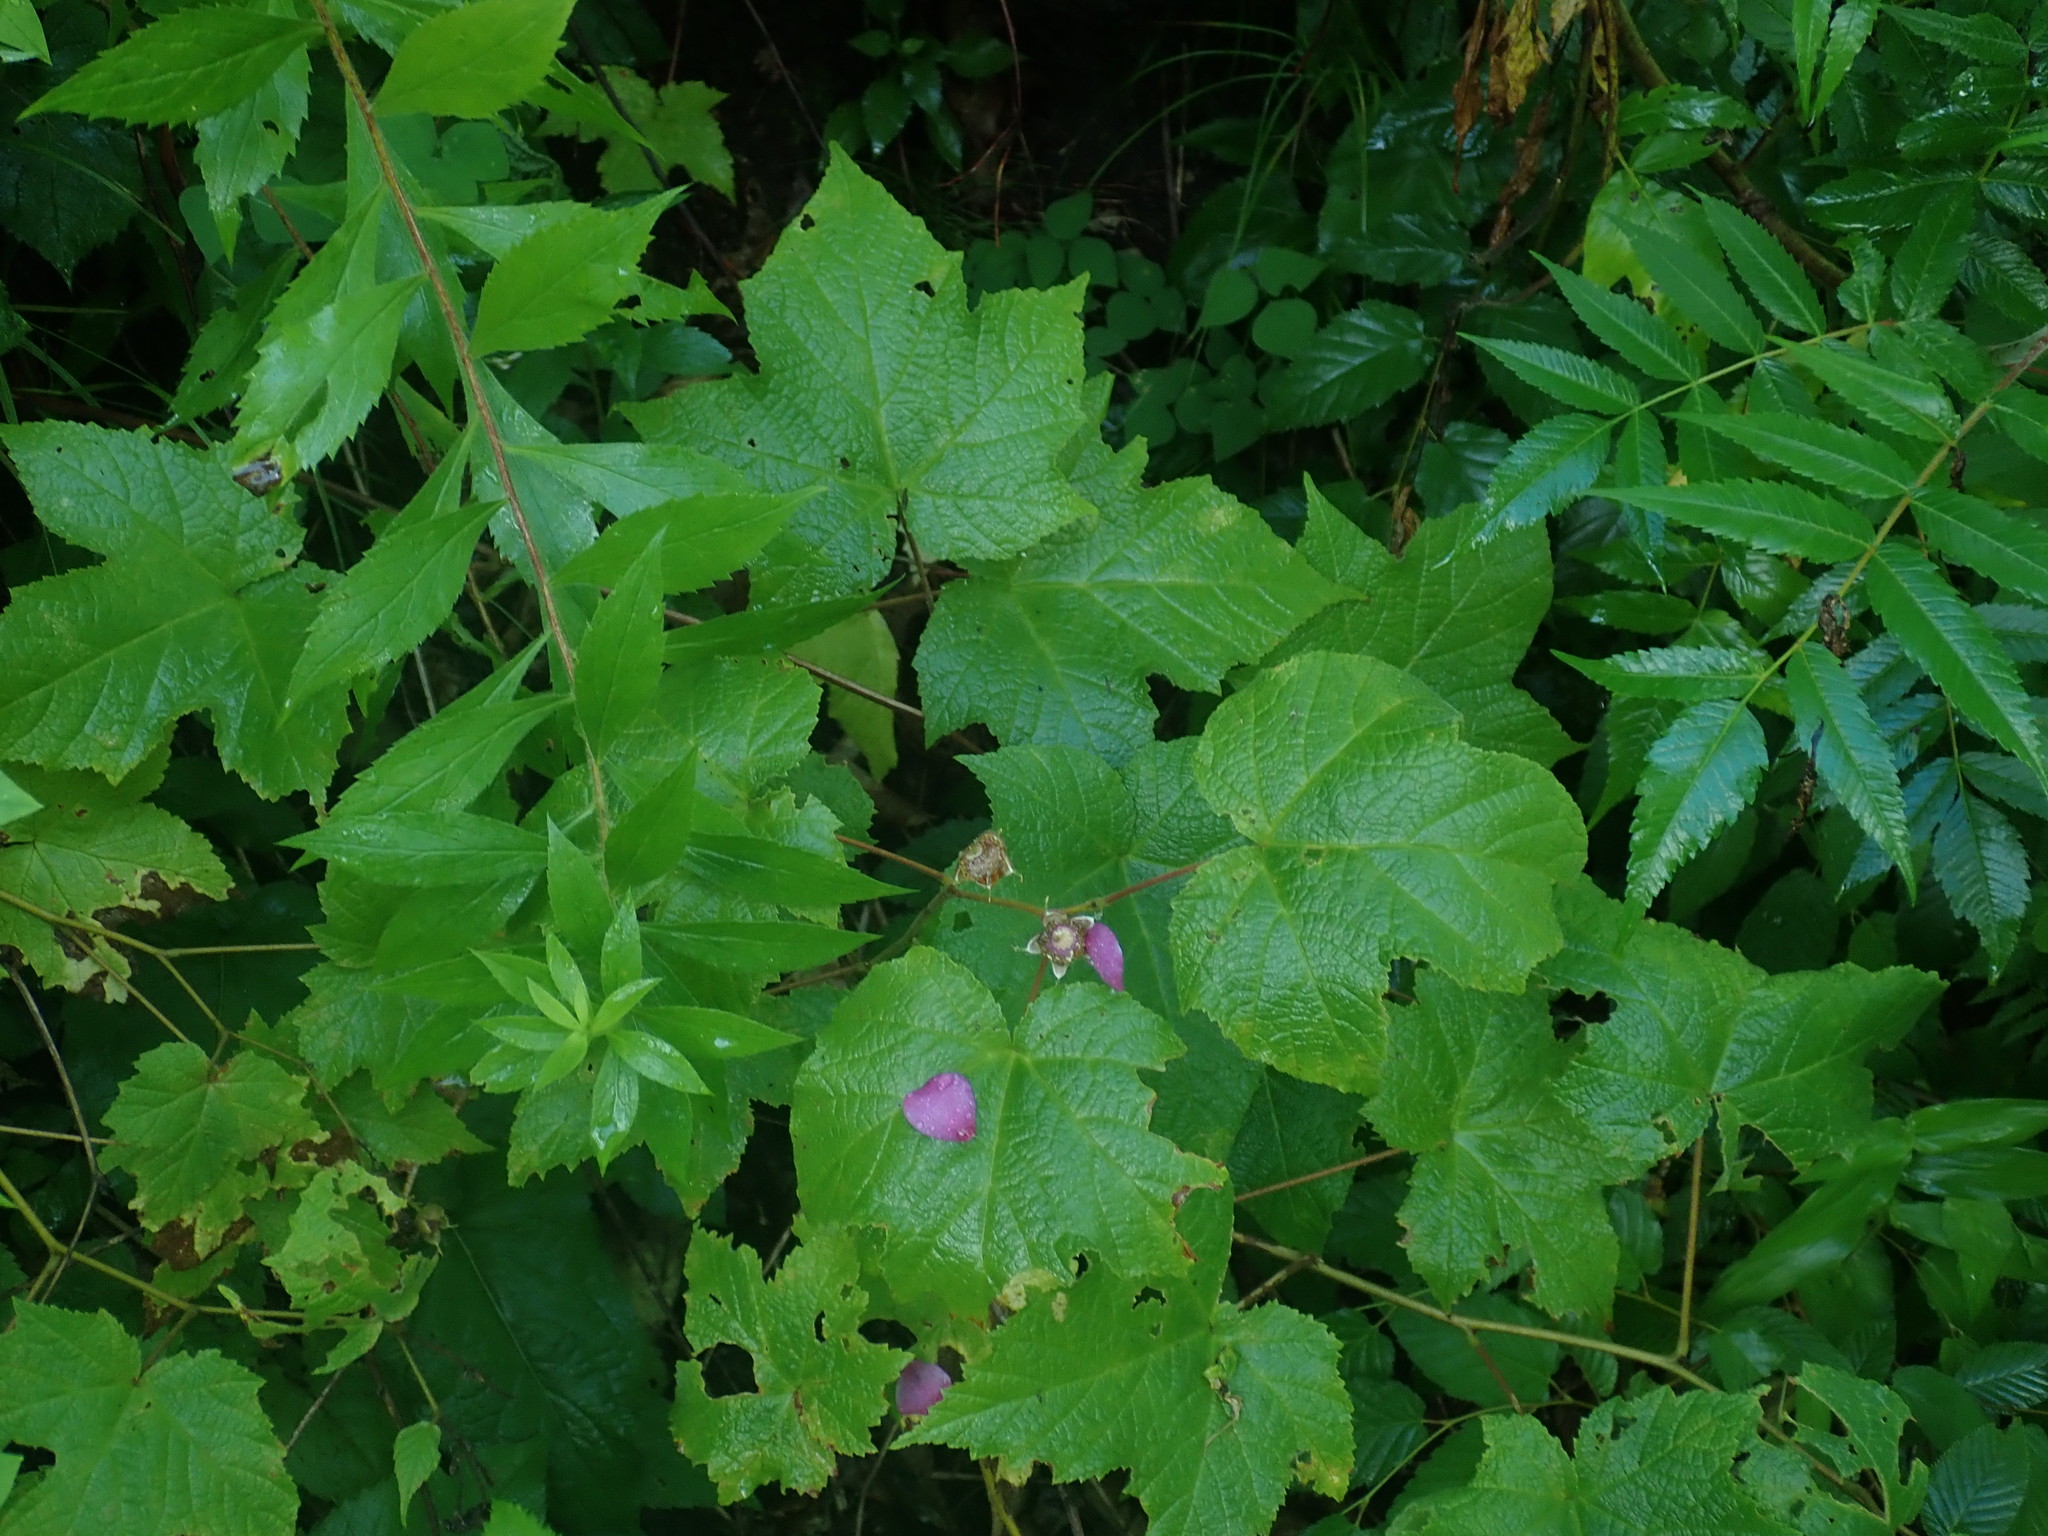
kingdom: Plantae
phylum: Tracheophyta
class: Magnoliopsida
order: Rosales
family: Rosaceae
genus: Rubus
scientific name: Rubus odoratus
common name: Purple-flowered raspberry
